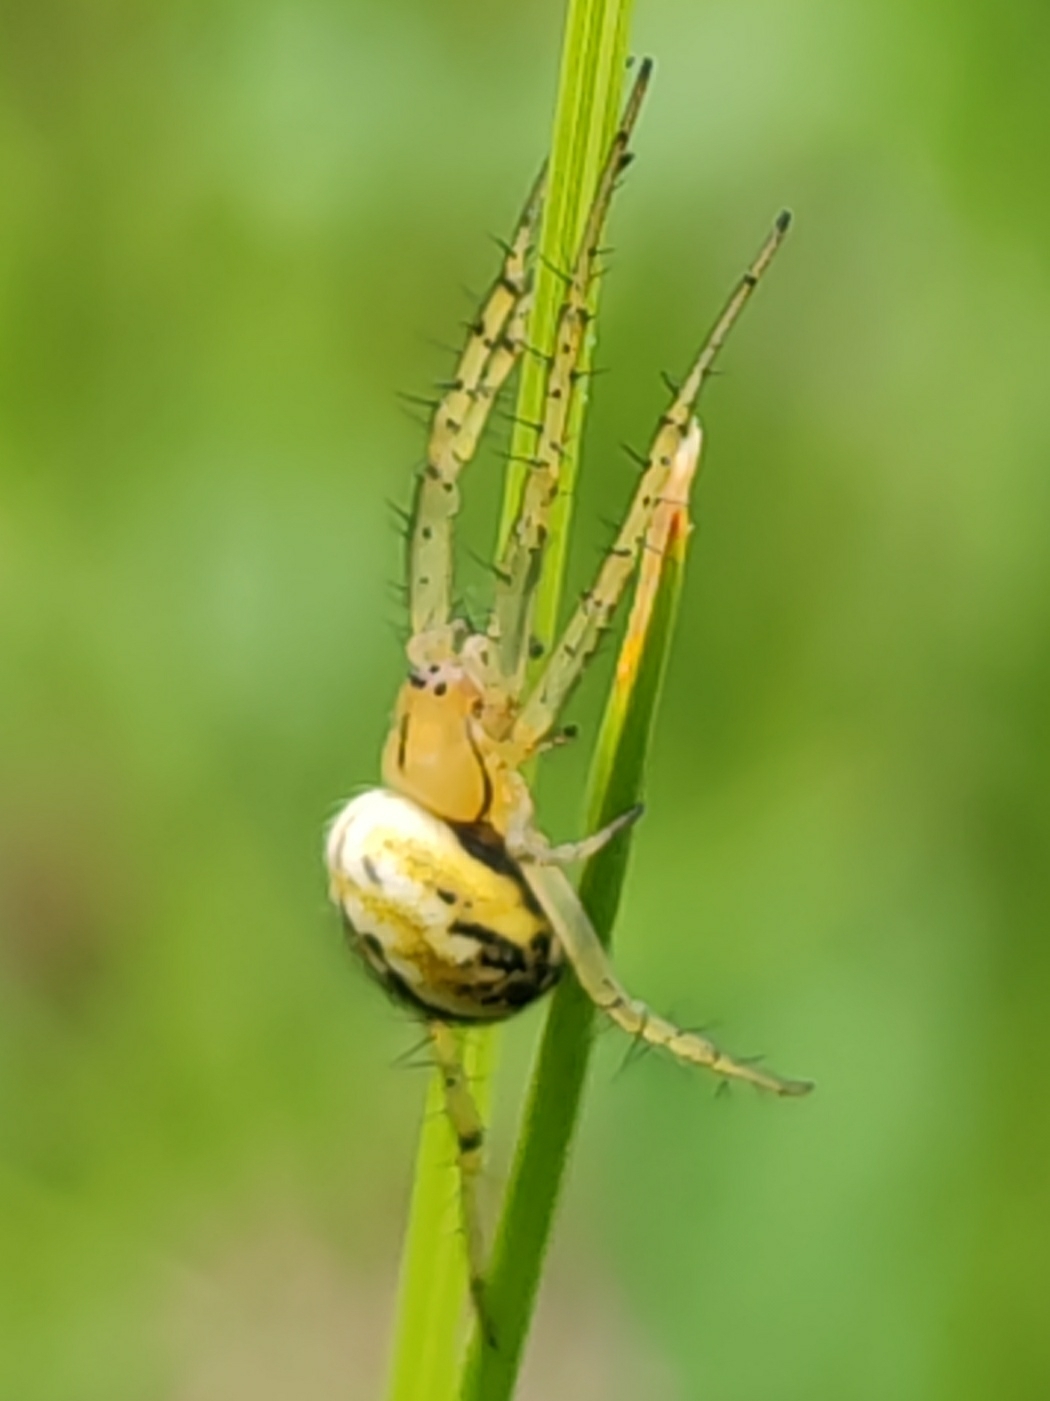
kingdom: Animalia
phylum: Arthropoda
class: Arachnida
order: Araneae
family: Araneidae
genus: Mangora
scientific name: Mangora acalypha
